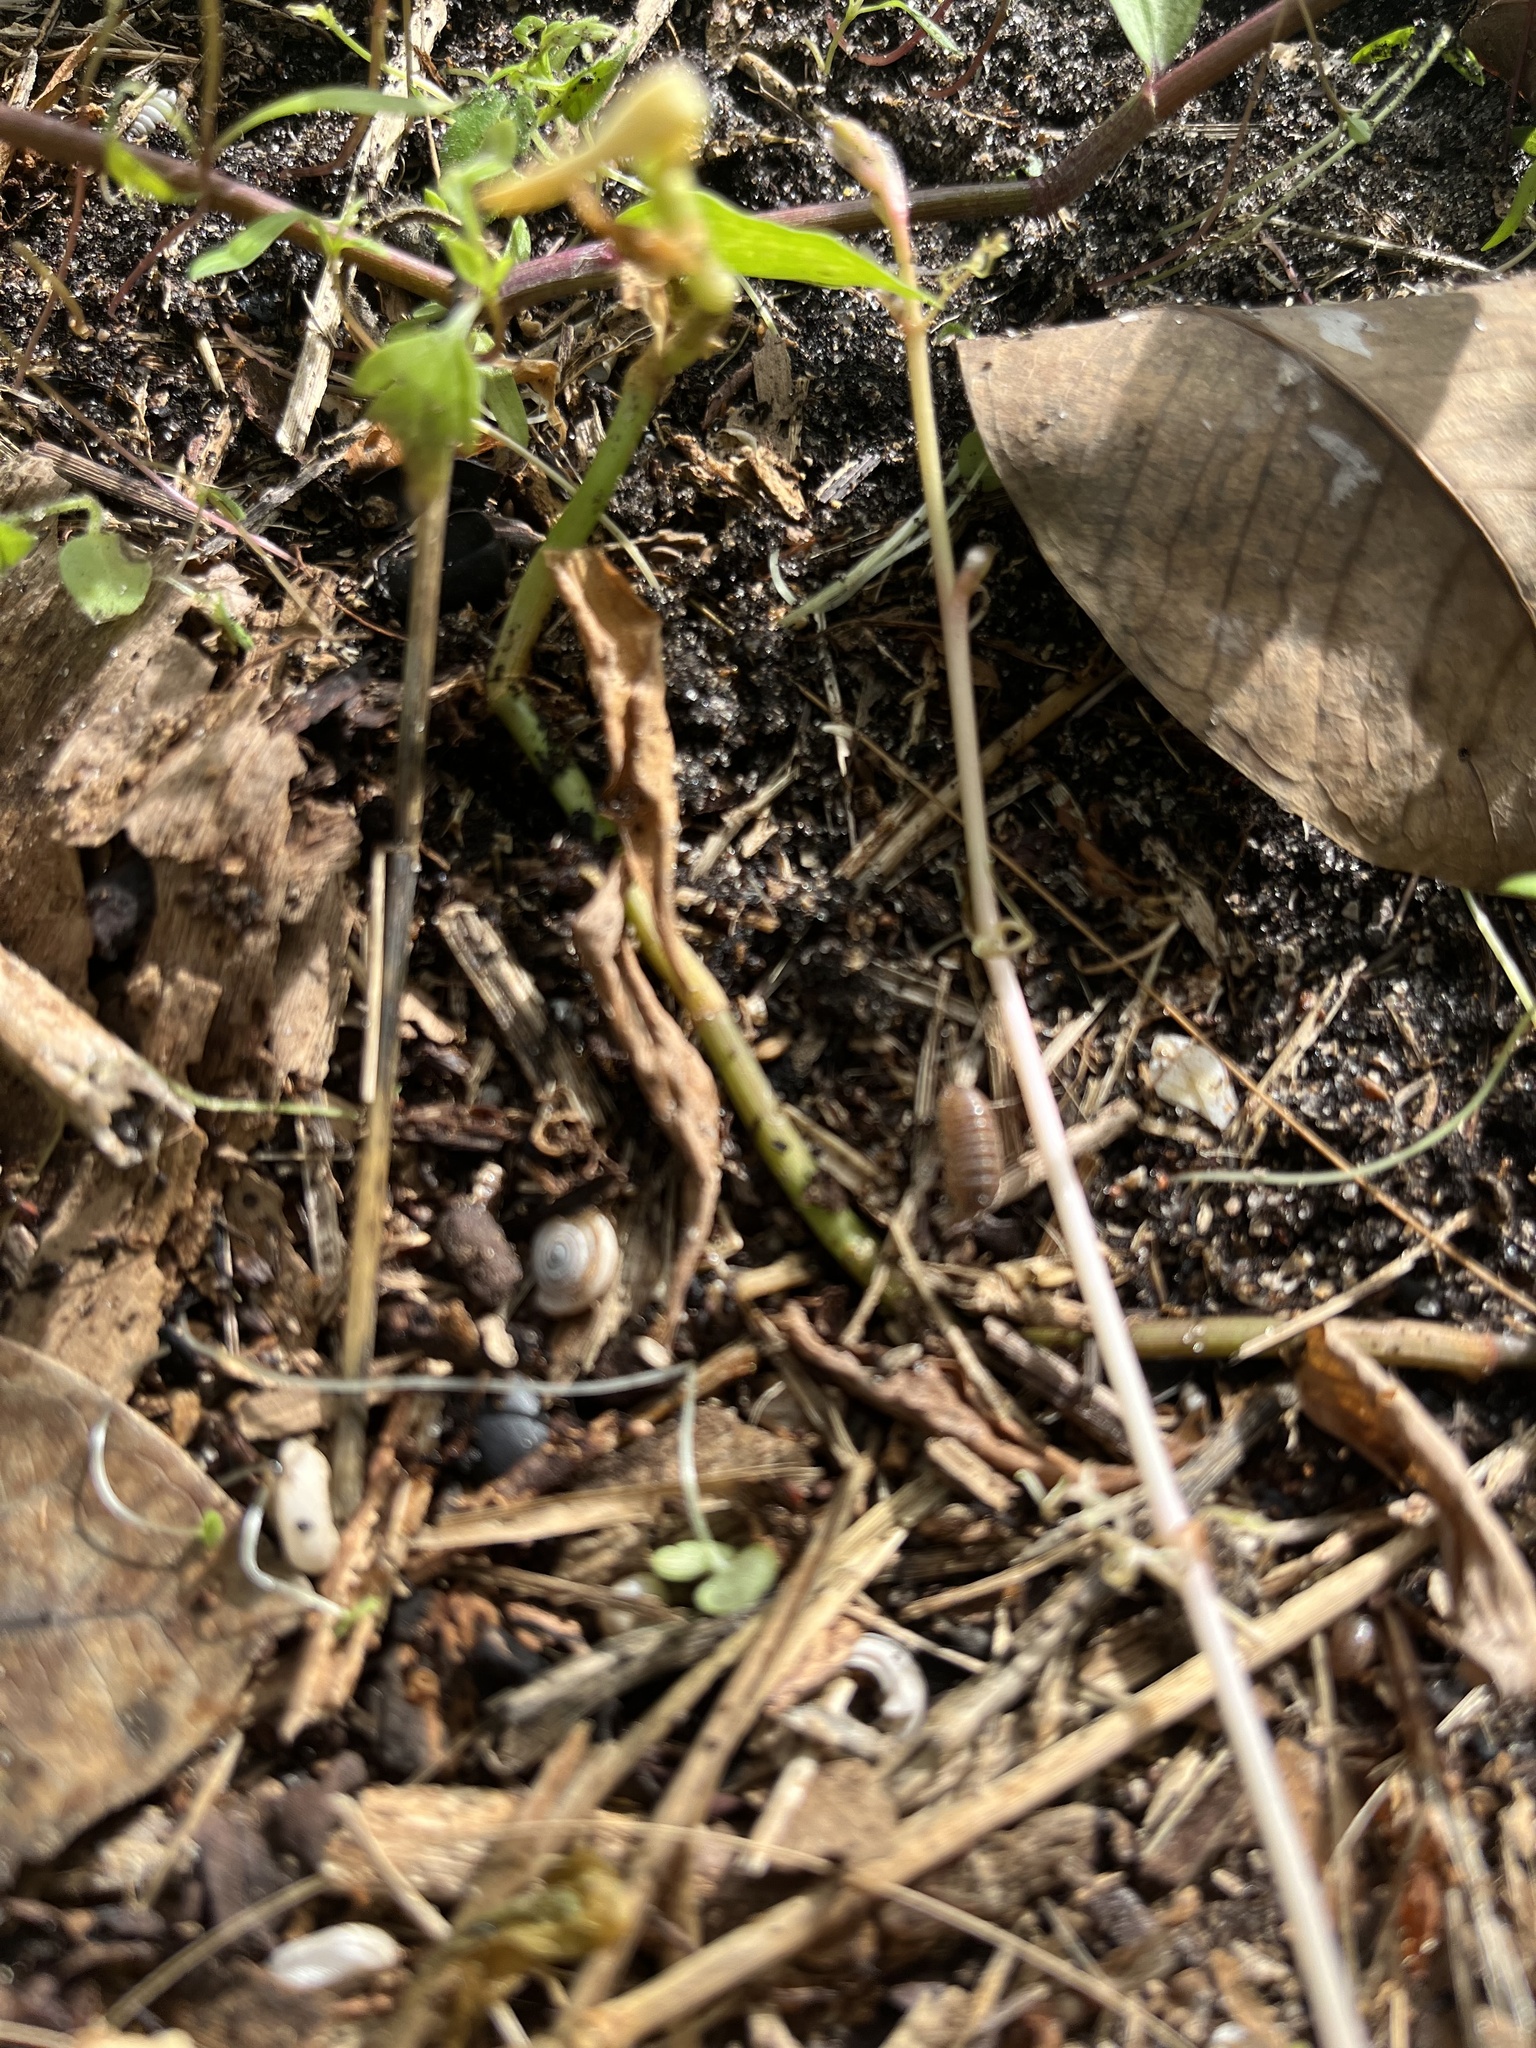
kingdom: Animalia
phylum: Arthropoda
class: Malacostraca
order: Isopoda
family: Armadillidiidae
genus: Armadillidium
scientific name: Armadillidium vulgare
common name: Common pill woodlouse
